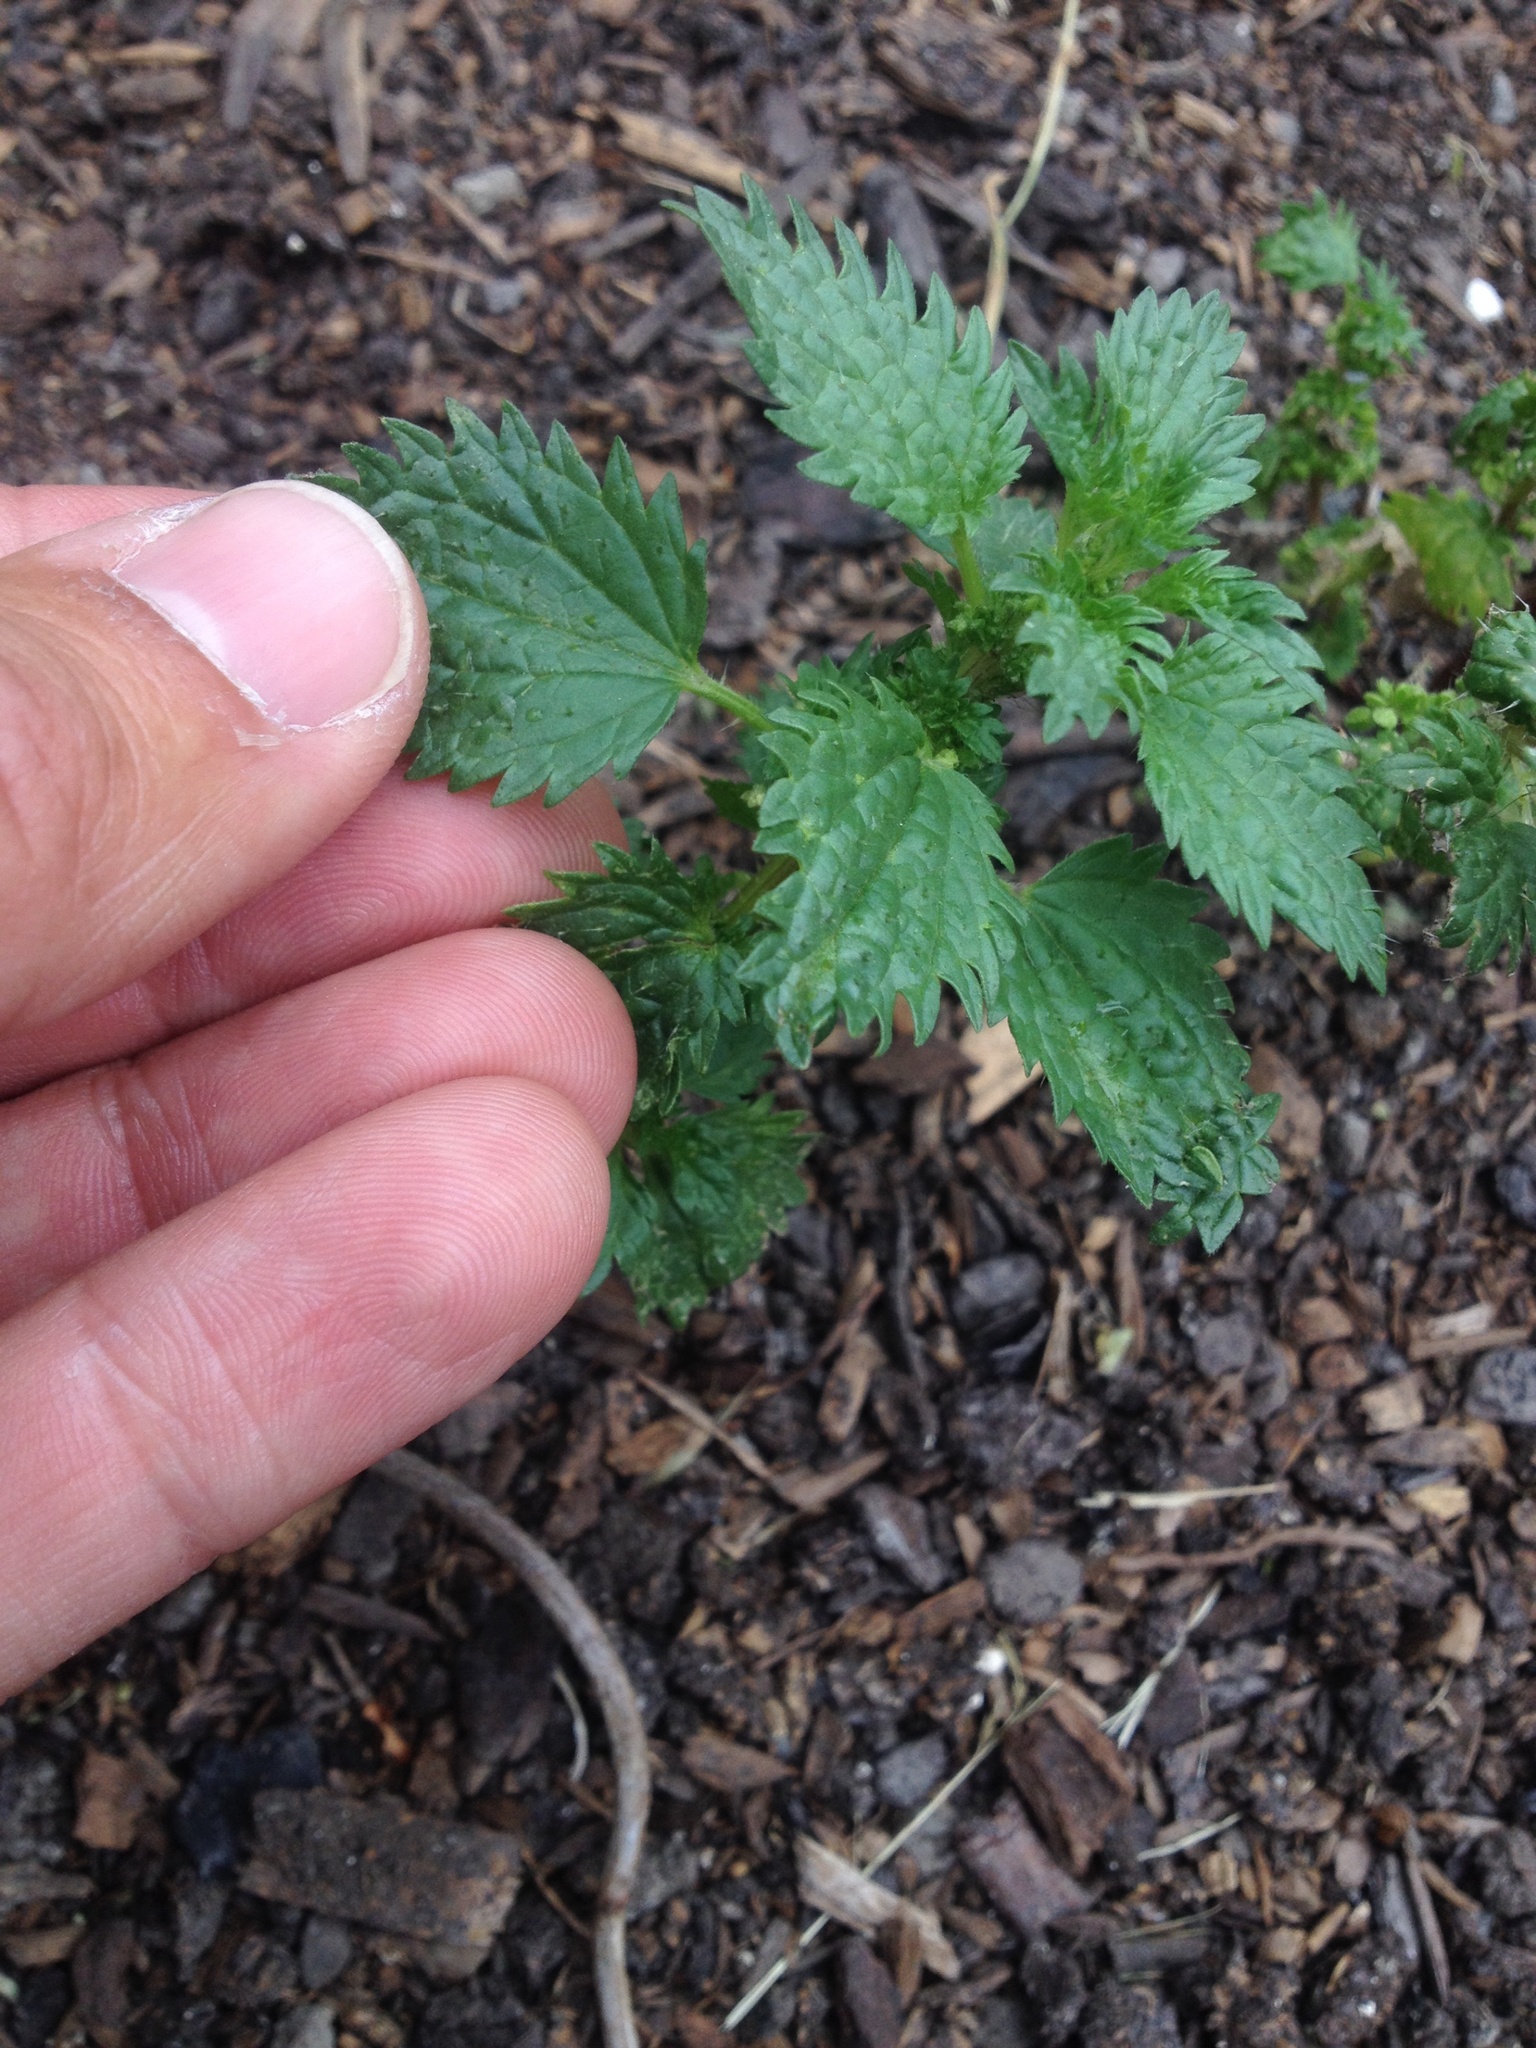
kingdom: Plantae
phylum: Tracheophyta
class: Magnoliopsida
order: Rosales
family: Urticaceae
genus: Urtica
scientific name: Urtica urens
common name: Dwarf nettle
